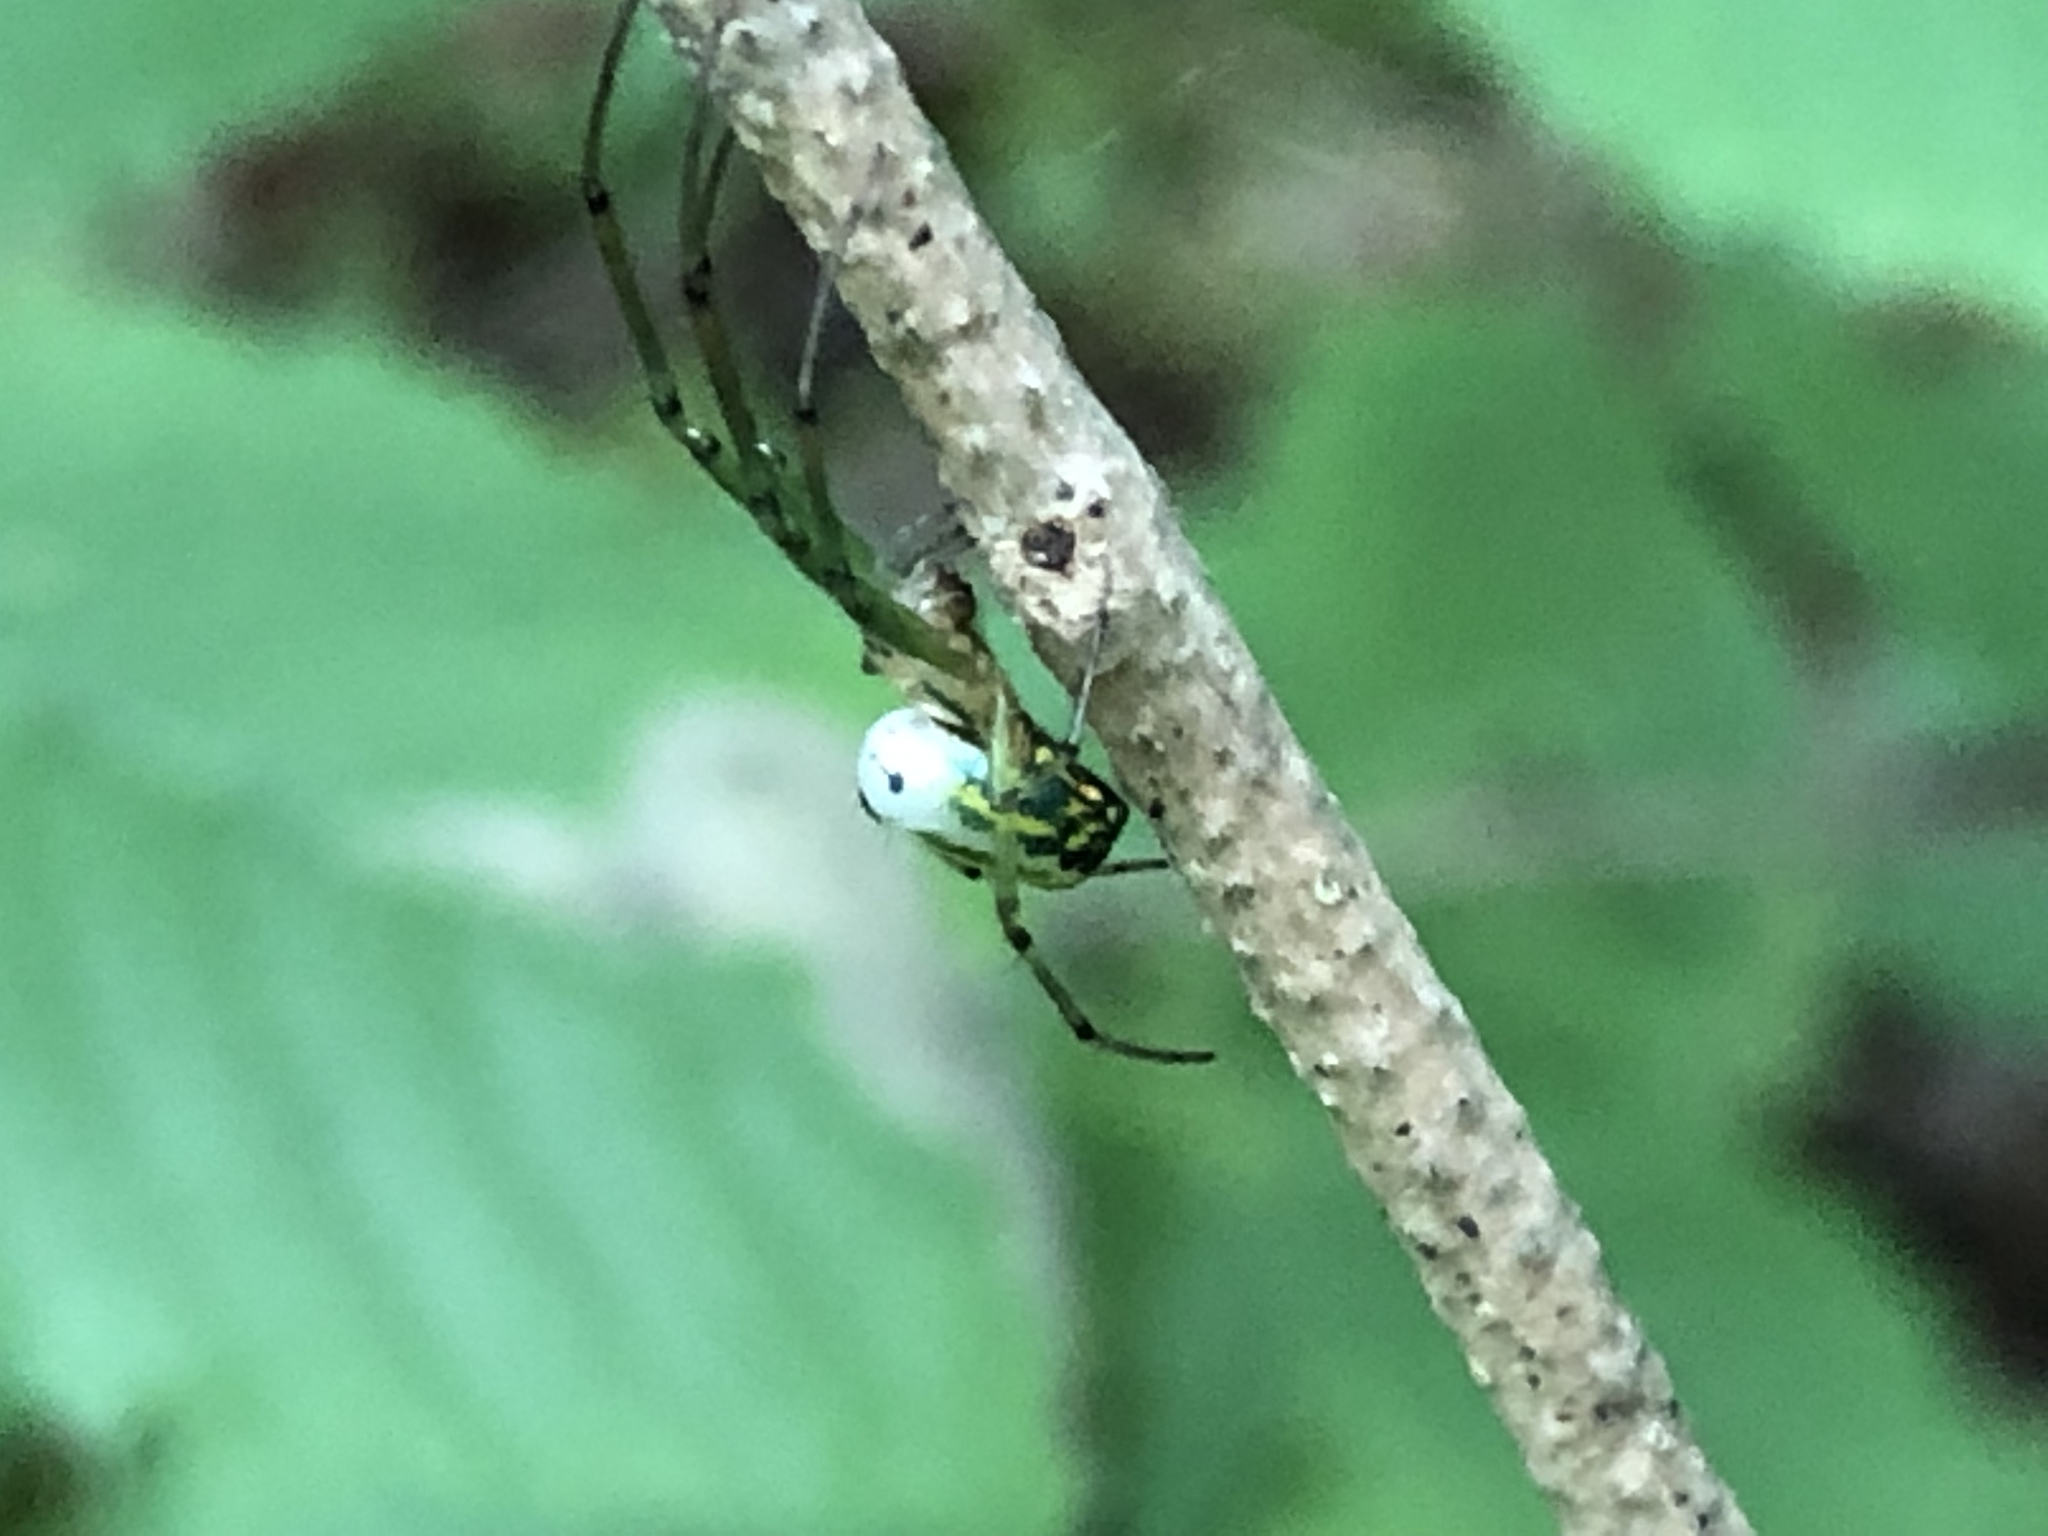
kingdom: Animalia
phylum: Arthropoda
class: Arachnida
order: Araneae
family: Tetragnathidae
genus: Leucauge
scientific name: Leucauge venusta
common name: Longjawed orb weavers
